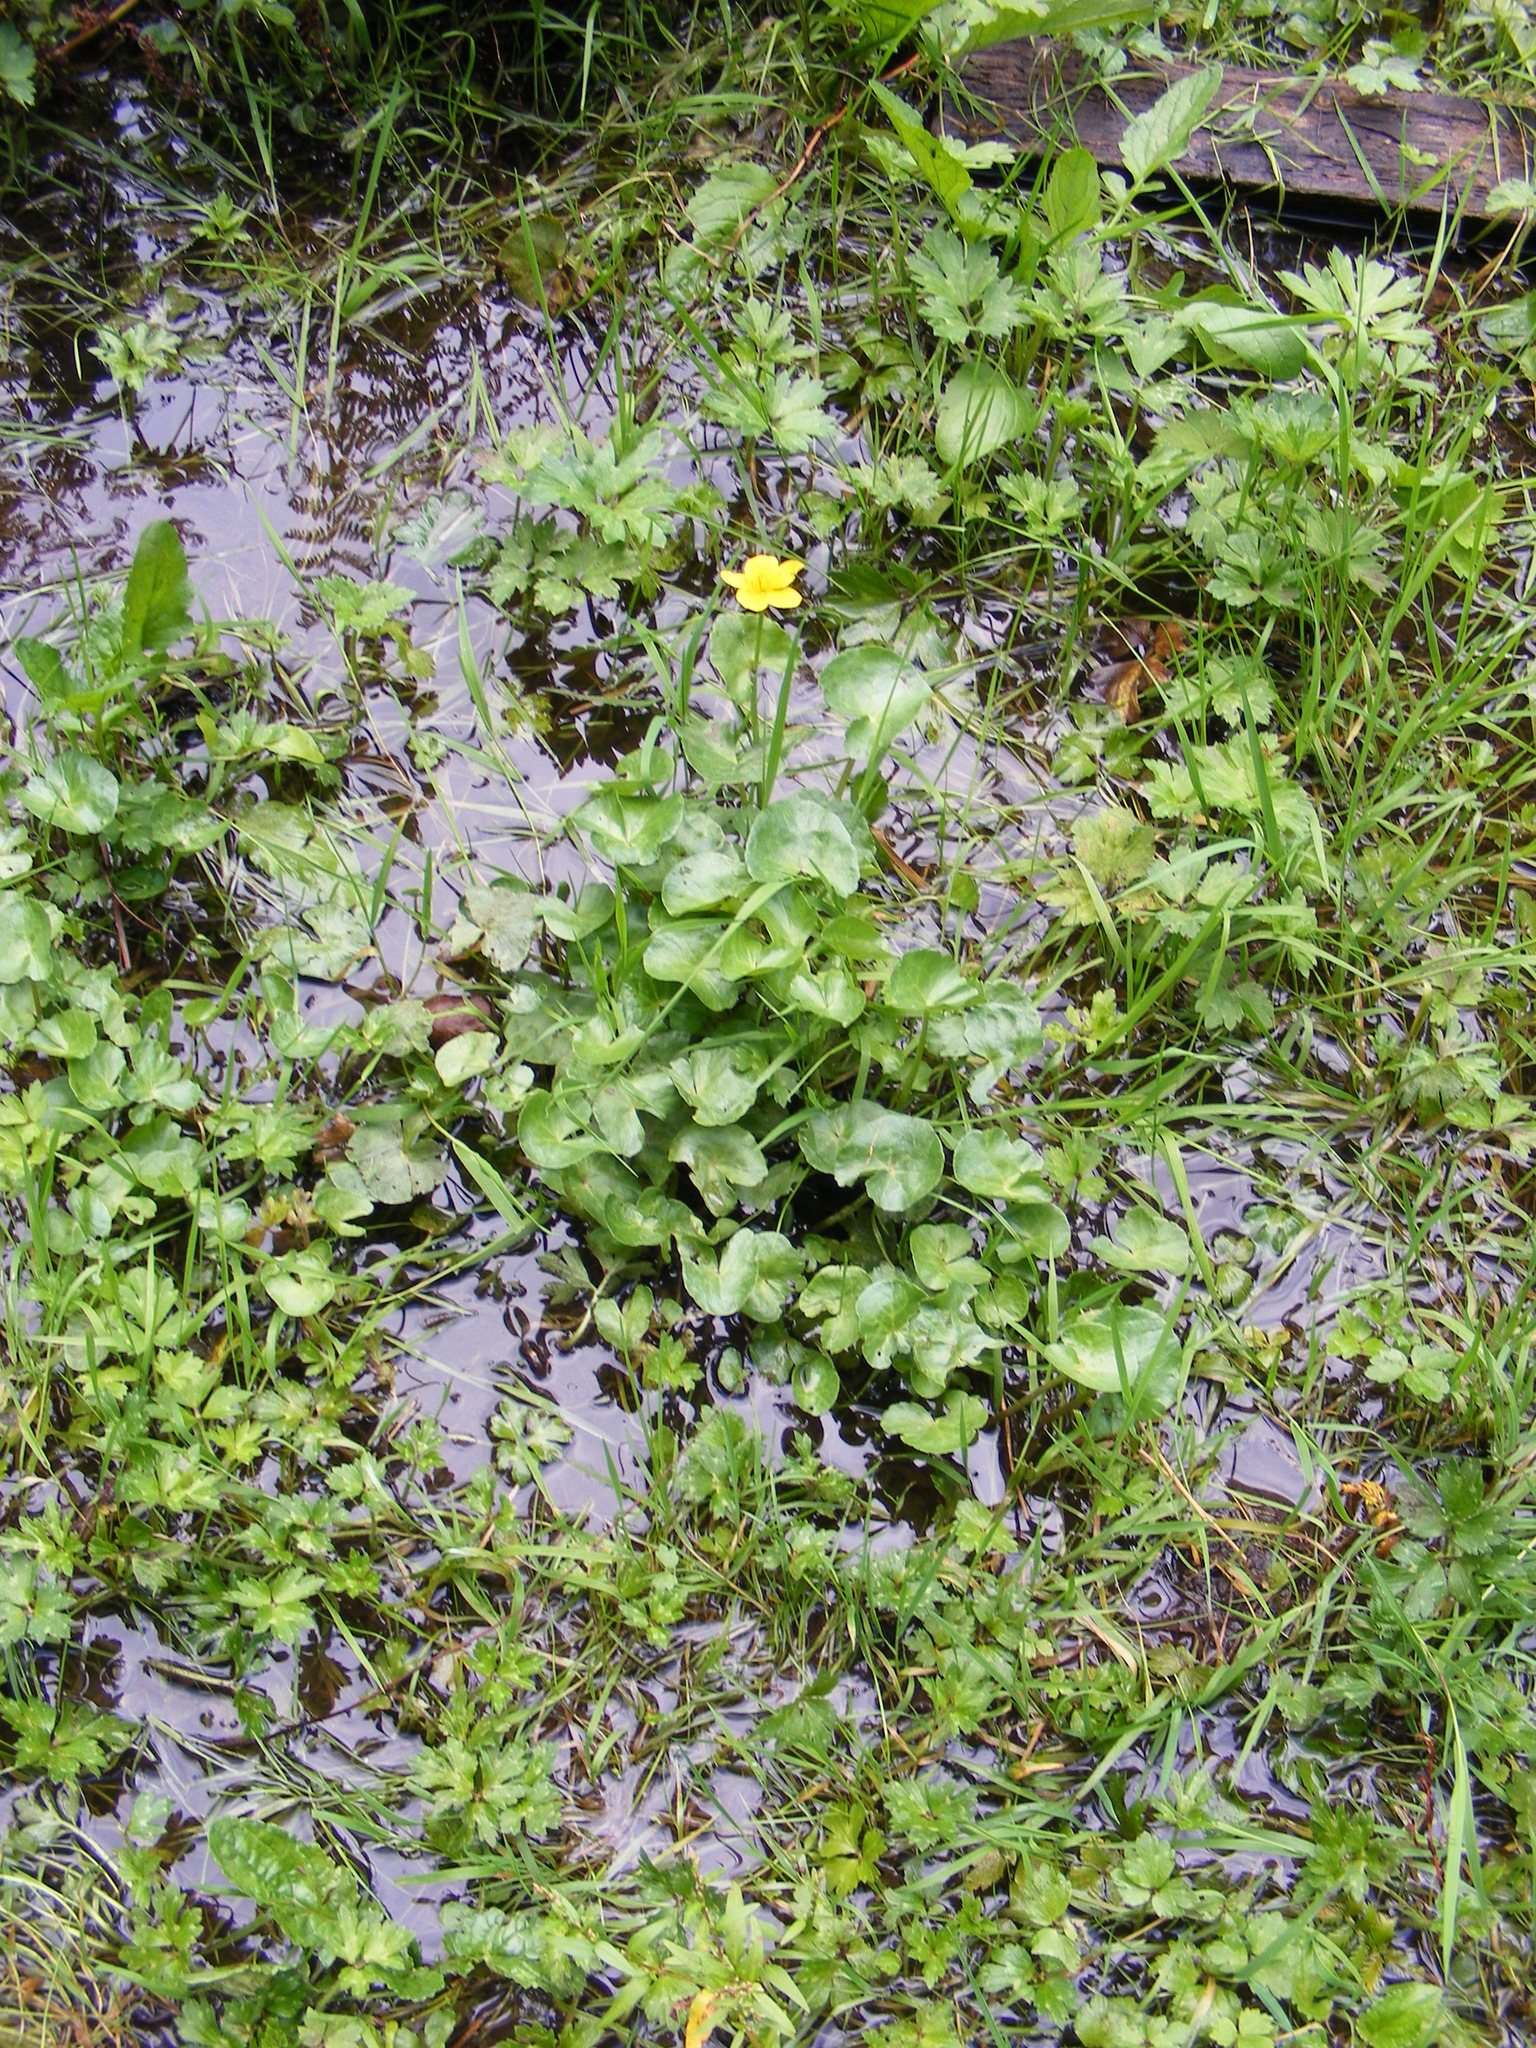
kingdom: Plantae
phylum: Tracheophyta
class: Magnoliopsida
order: Ranunculales
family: Ranunculaceae
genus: Caltha
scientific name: Caltha palustris
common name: Marsh marigold
